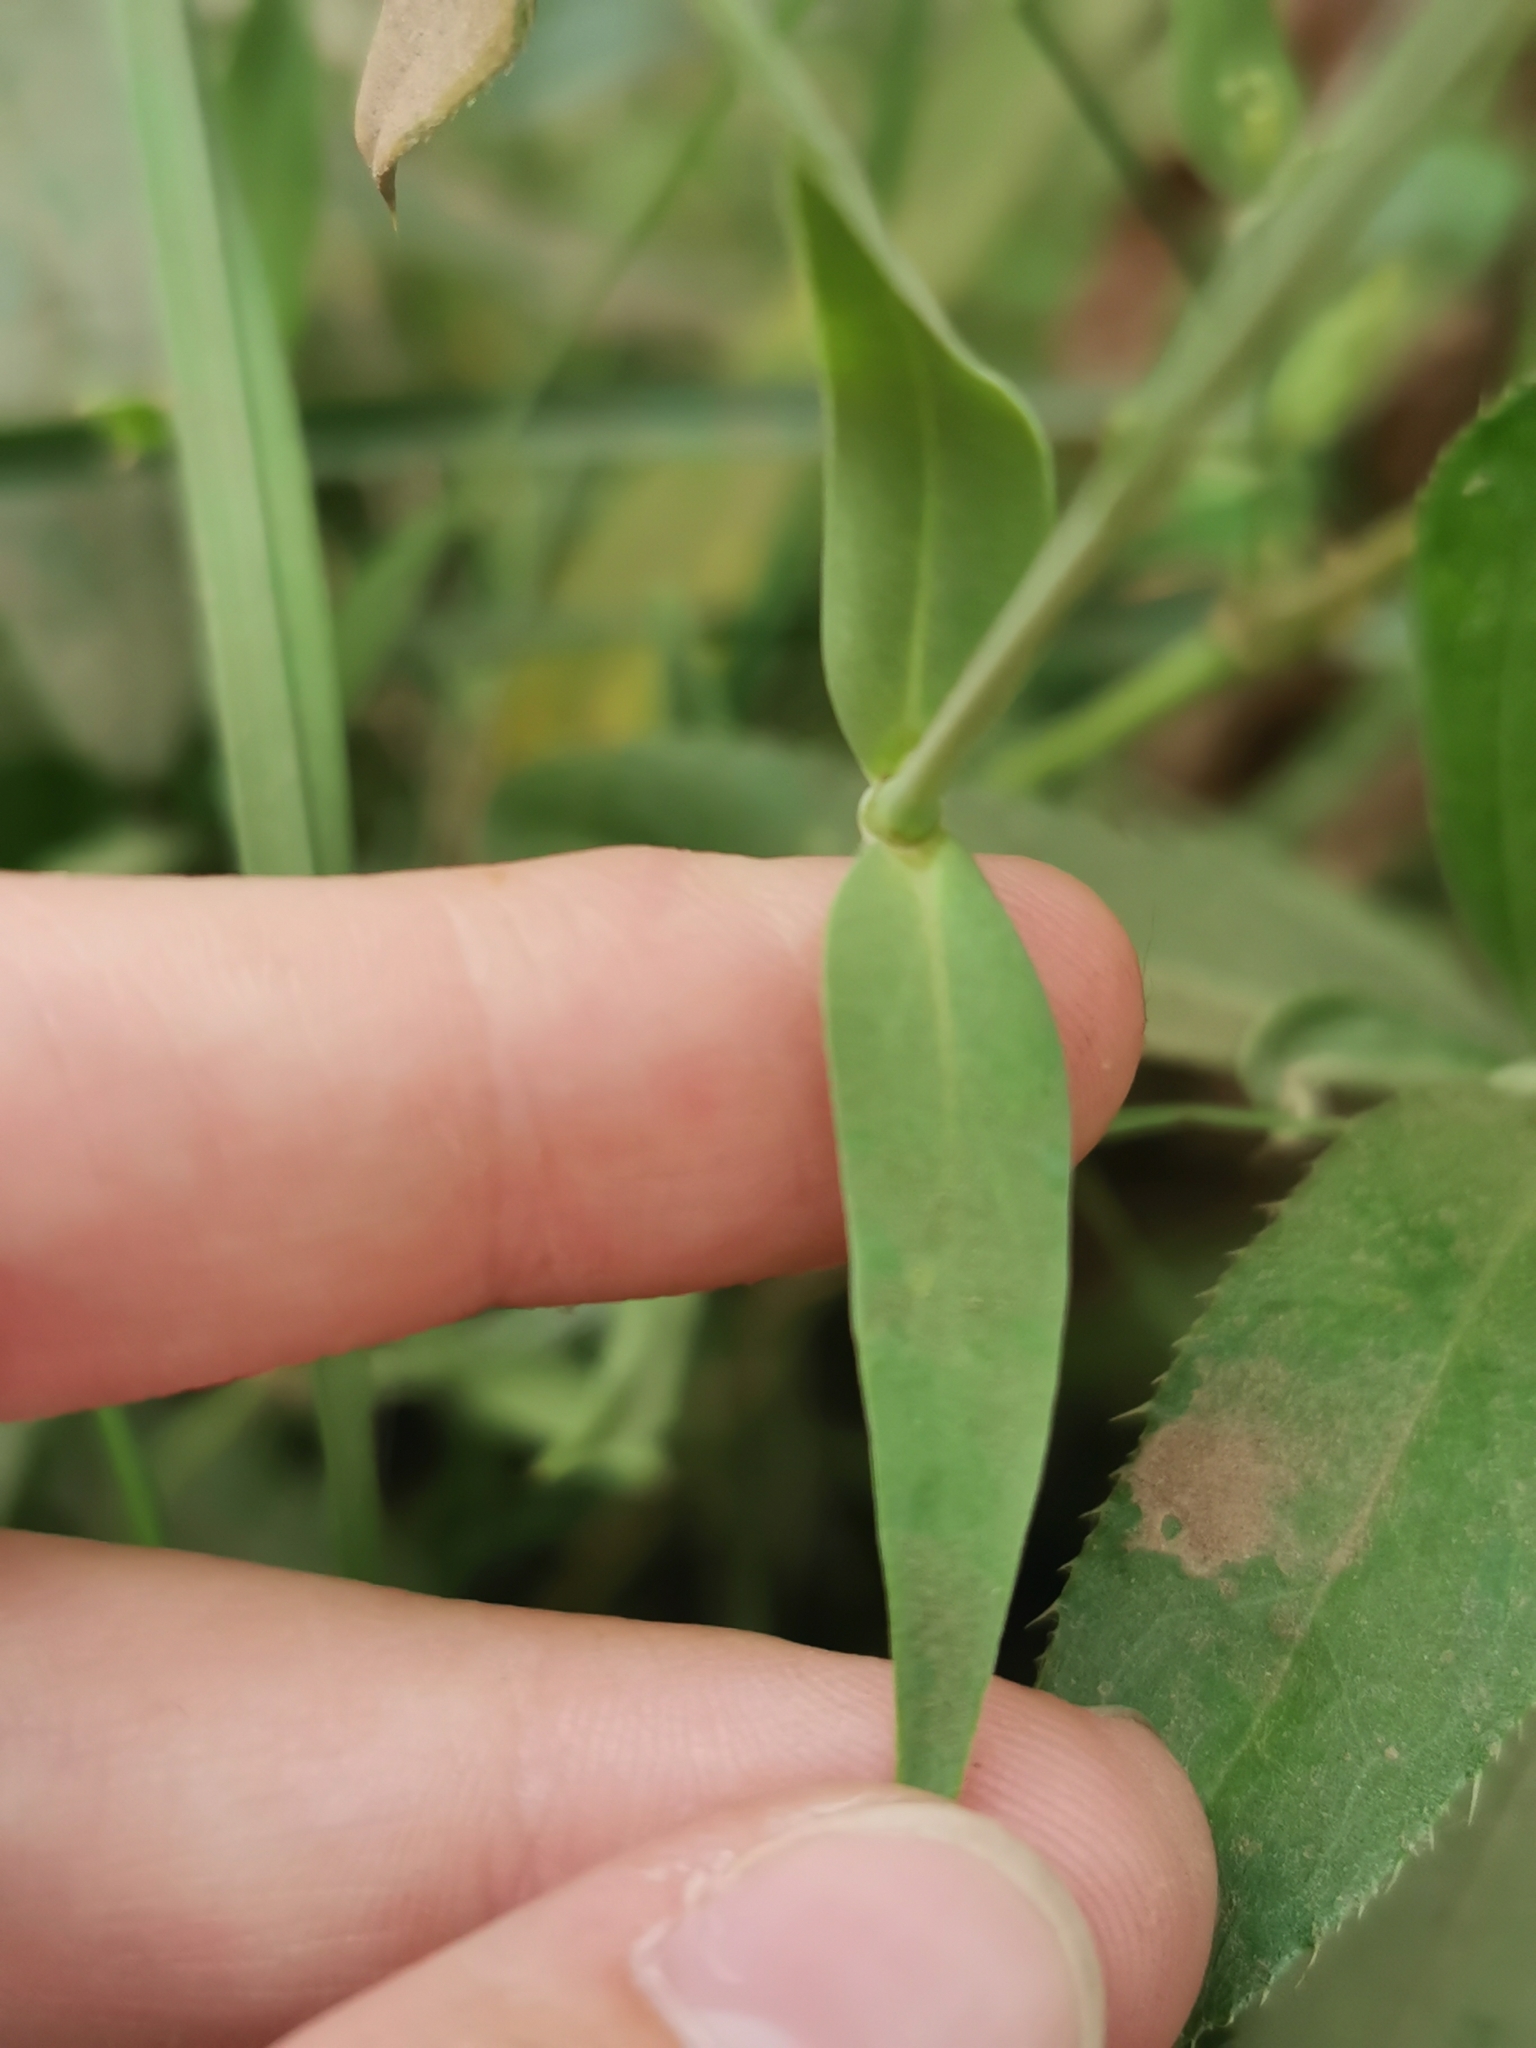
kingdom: Plantae
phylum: Tracheophyta
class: Magnoliopsida
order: Caryophyllales
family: Caryophyllaceae
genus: Silene
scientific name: Silene vulgaris
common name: Bladder campion
